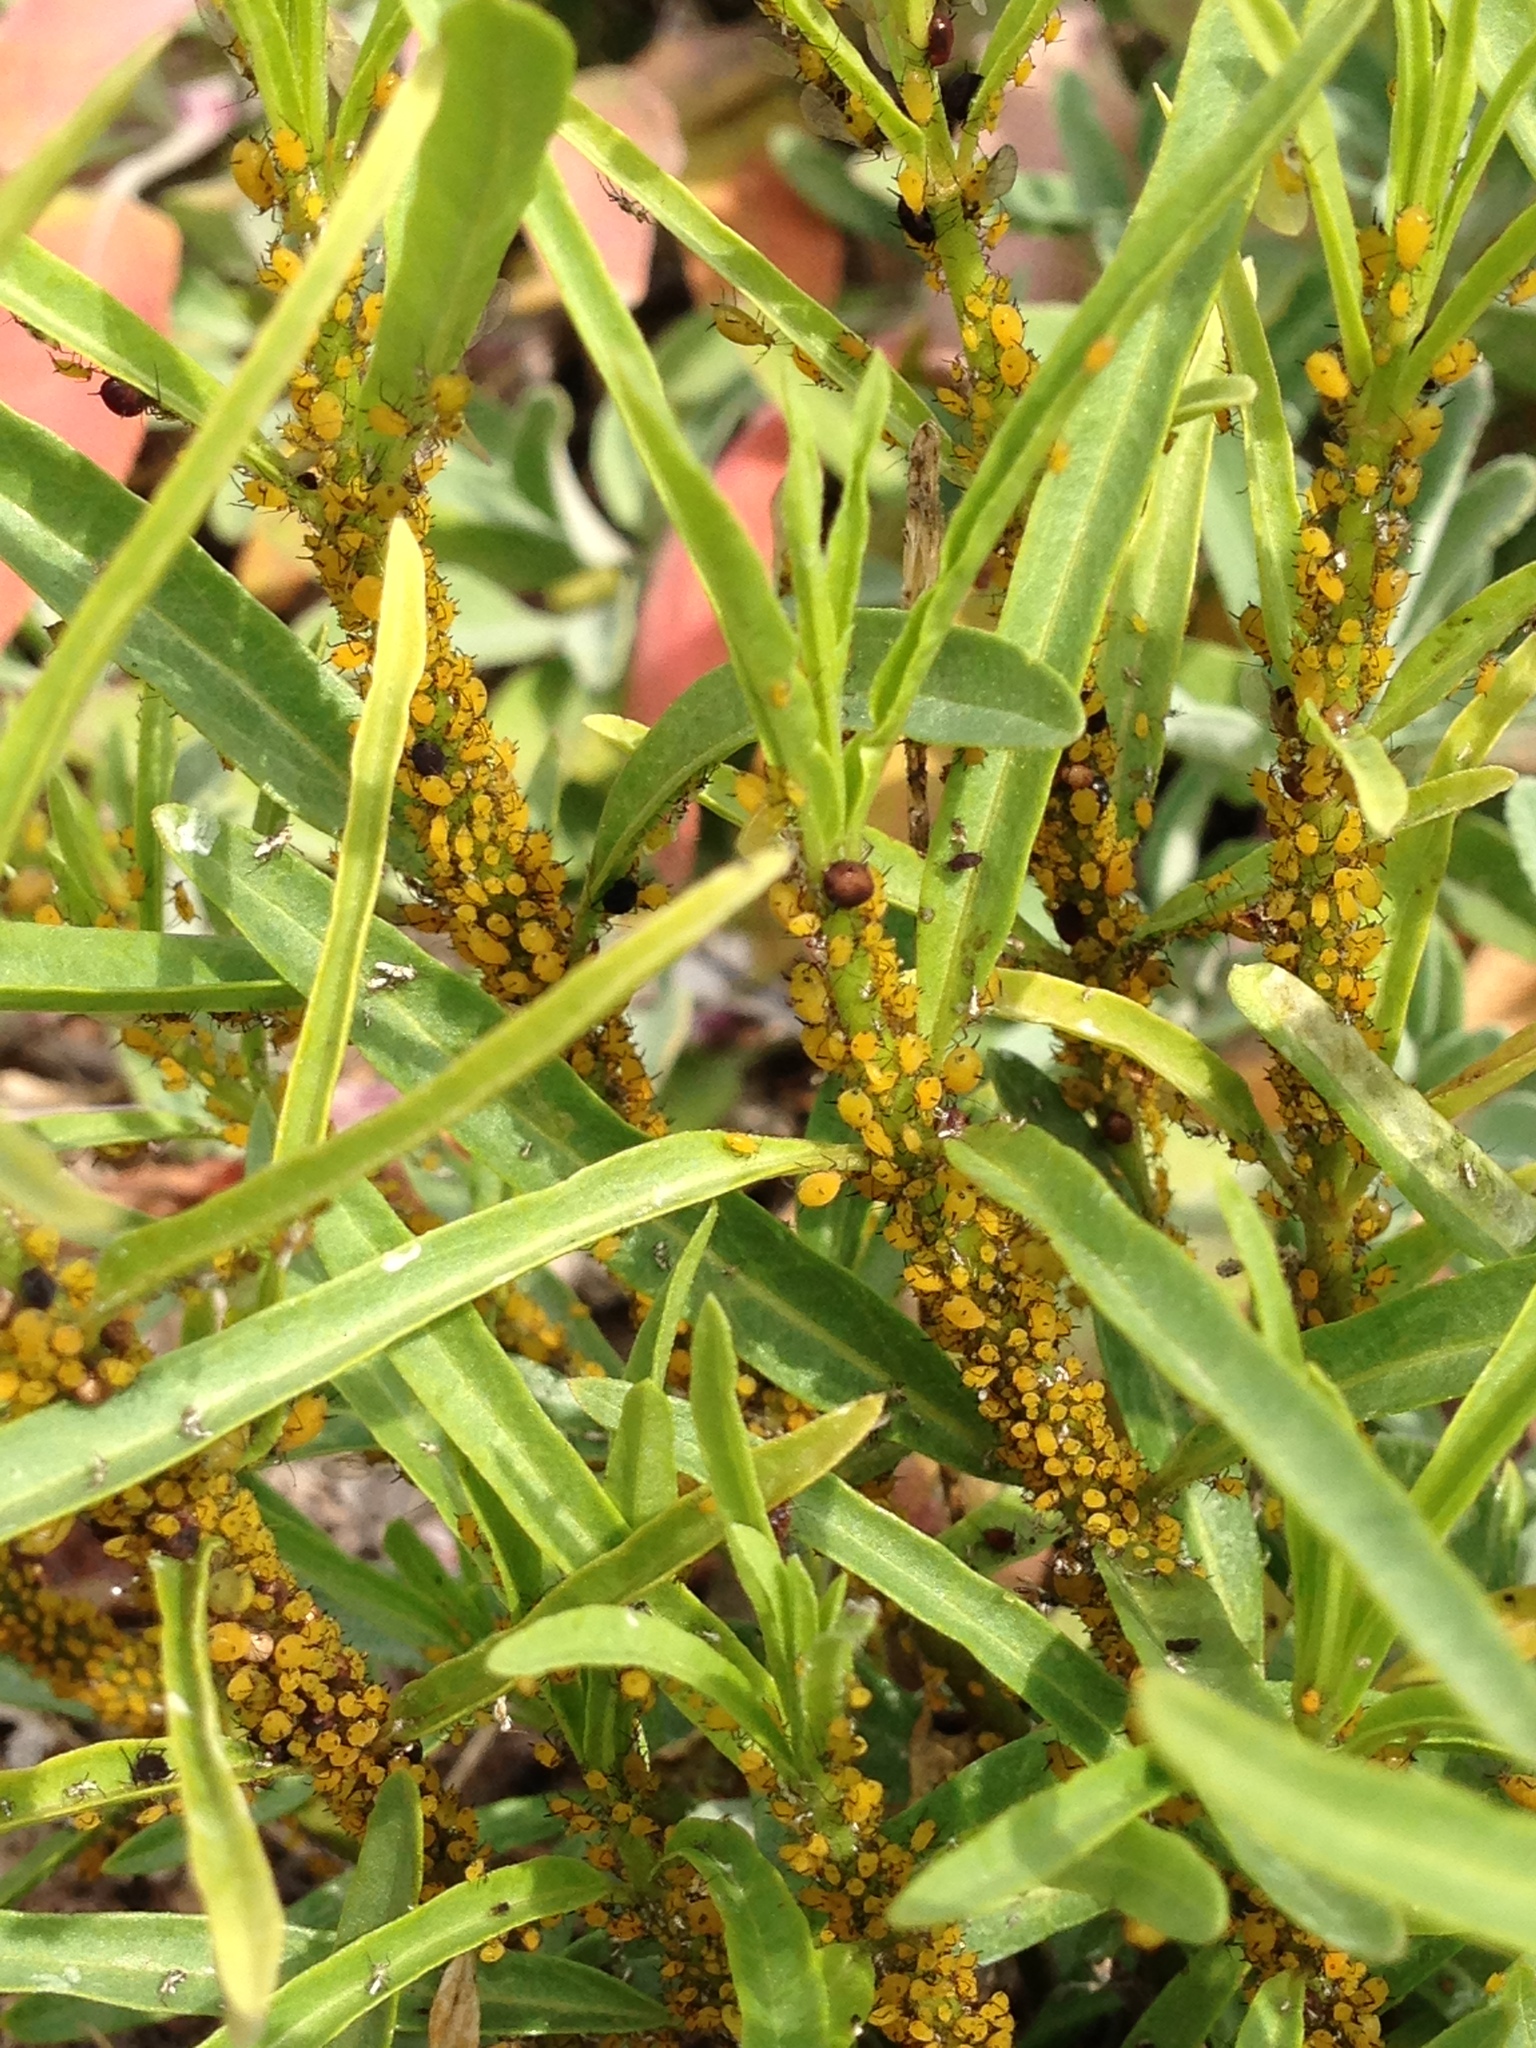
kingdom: Animalia
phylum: Arthropoda
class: Insecta
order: Hemiptera
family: Aphididae
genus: Aphis
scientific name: Aphis nerii
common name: Oleander aphid
